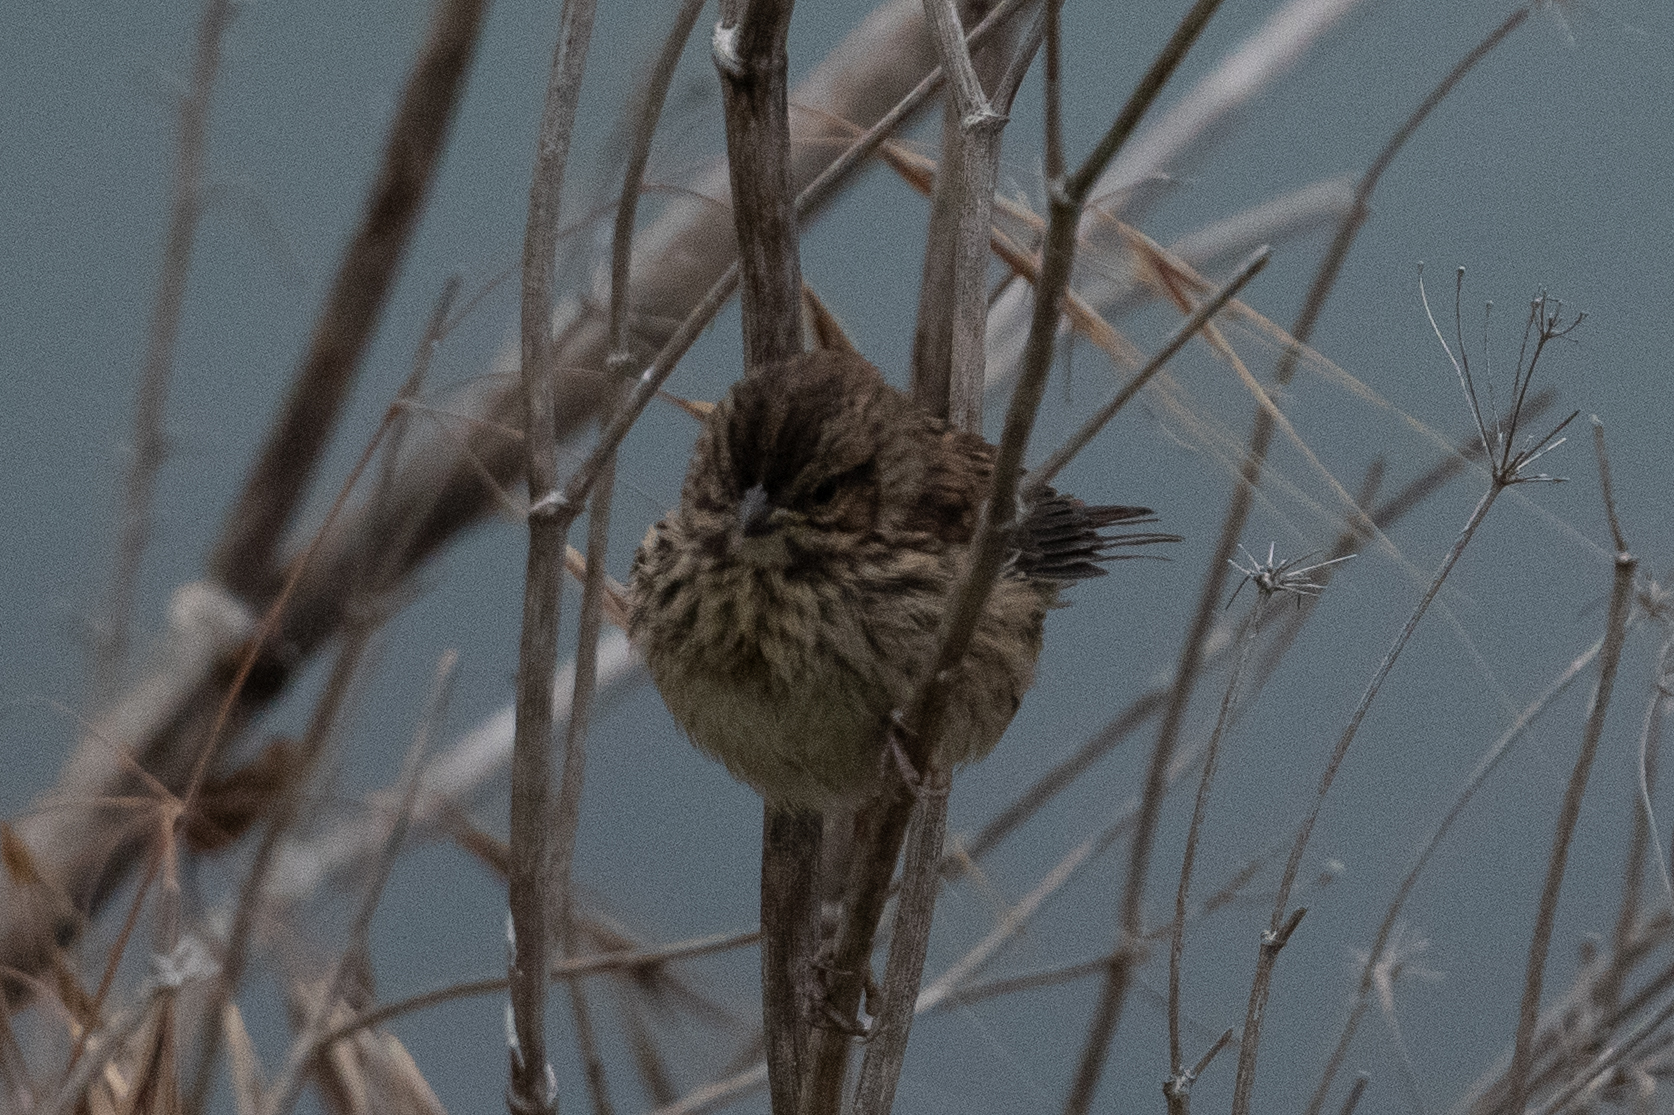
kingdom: Animalia
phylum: Chordata
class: Aves
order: Passeriformes
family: Passerellidae
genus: Melospiza
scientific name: Melospiza melodia
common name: Song sparrow
